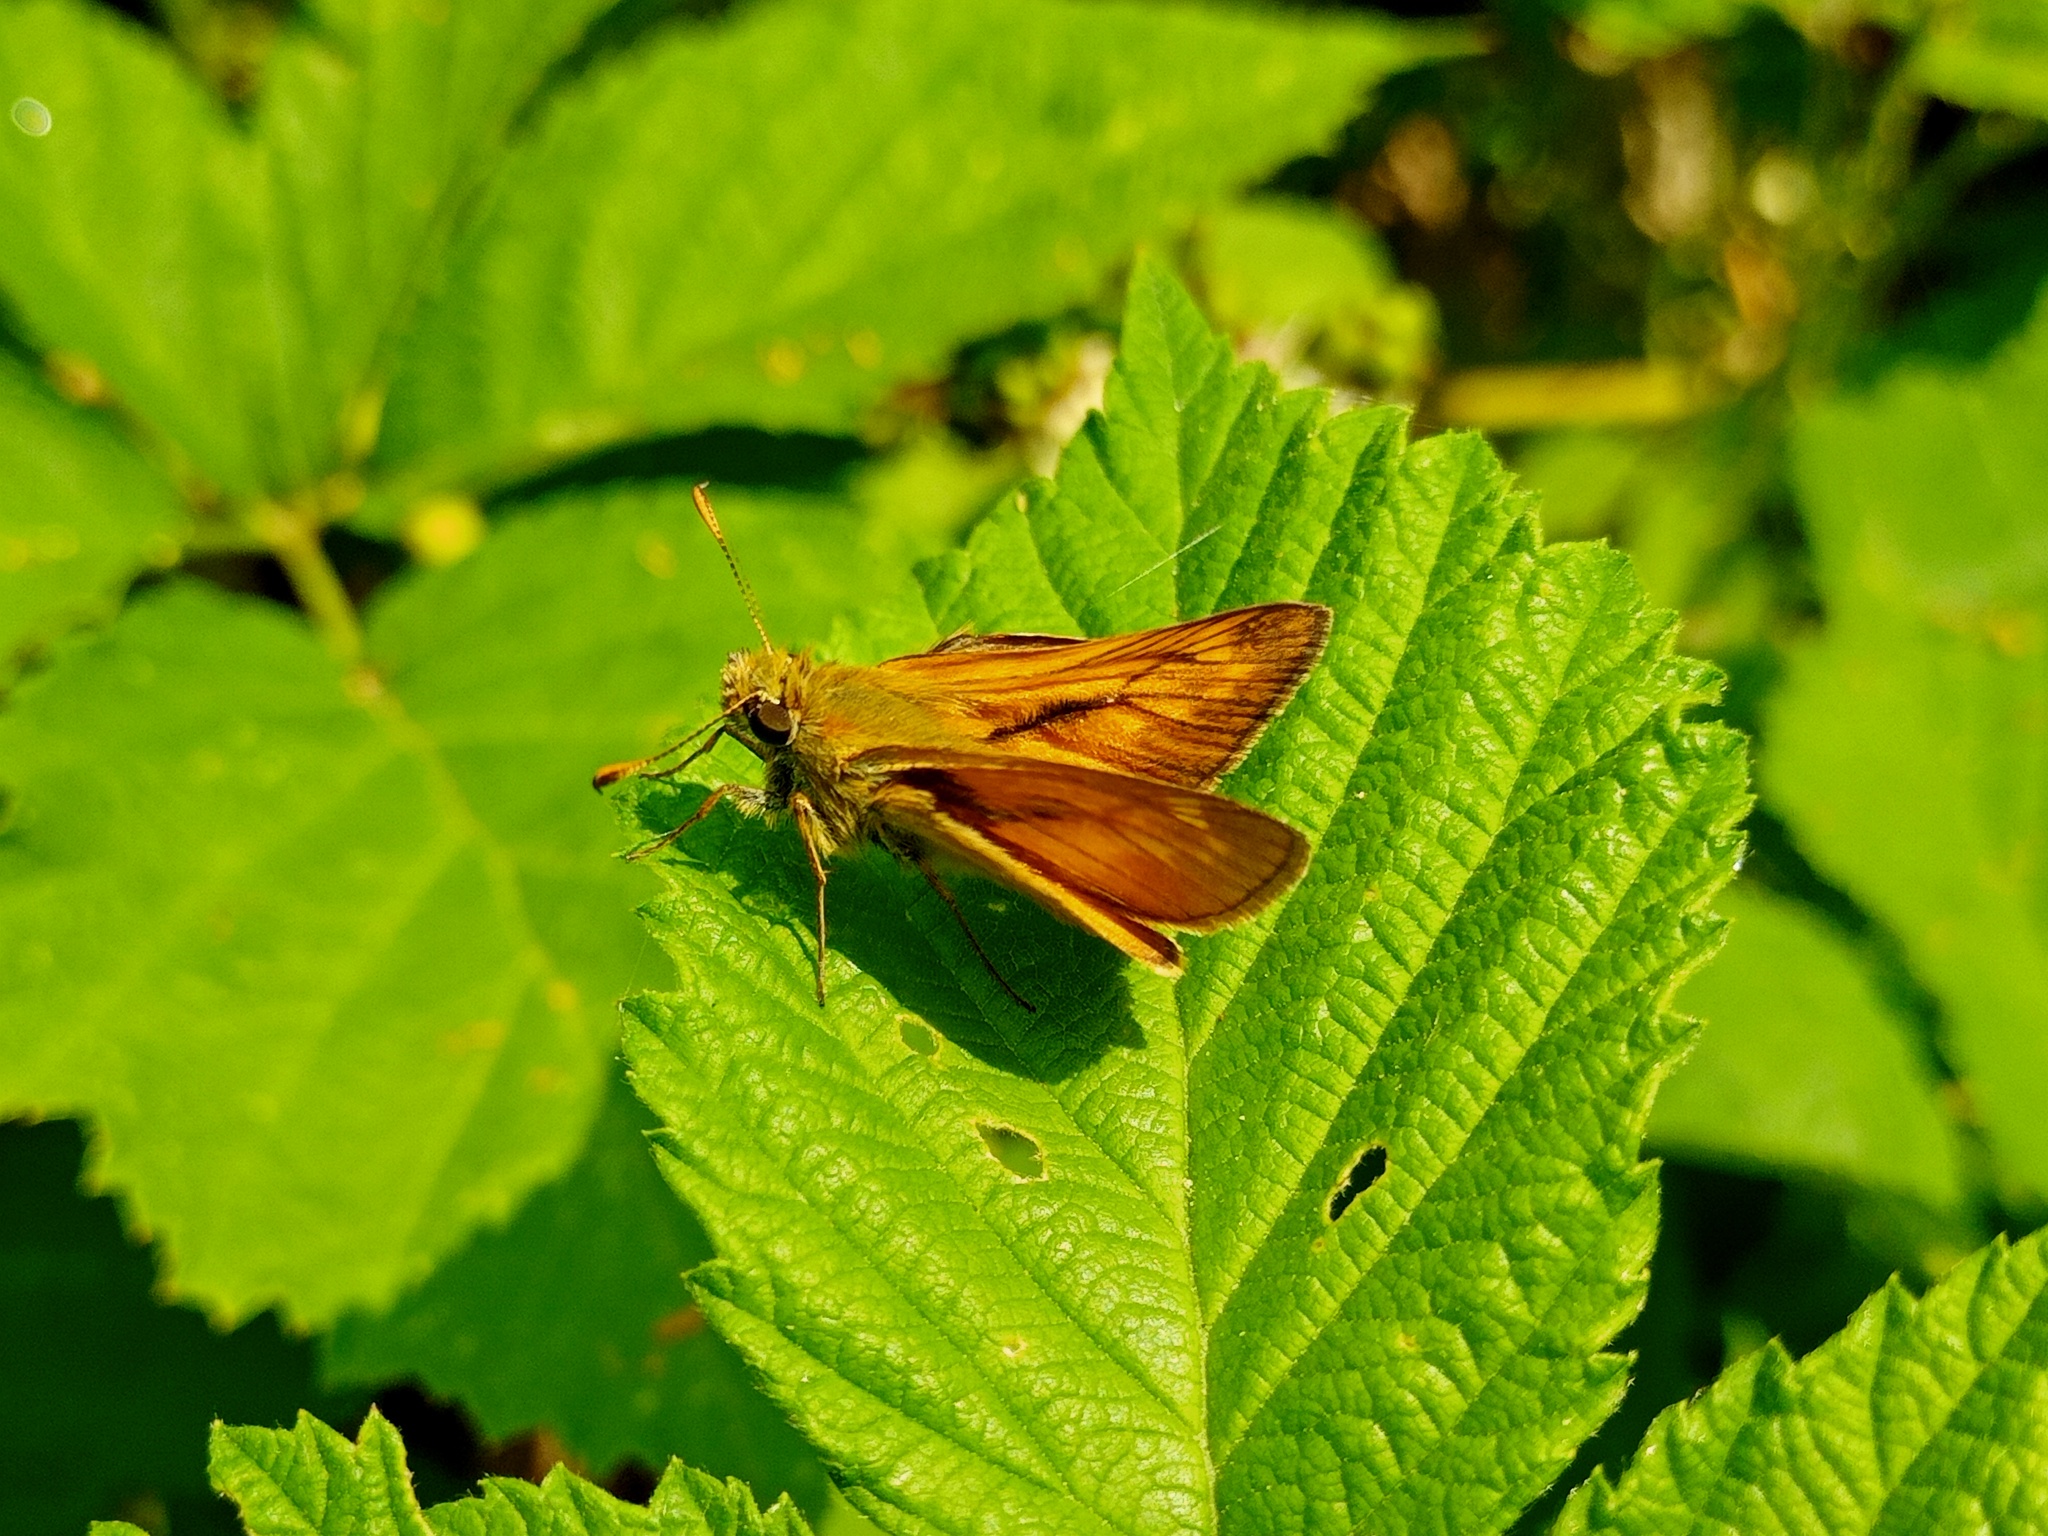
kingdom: Animalia
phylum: Arthropoda
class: Insecta
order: Lepidoptera
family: Hesperiidae
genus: Ochlodes
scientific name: Ochlodes venata
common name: Large skipper
